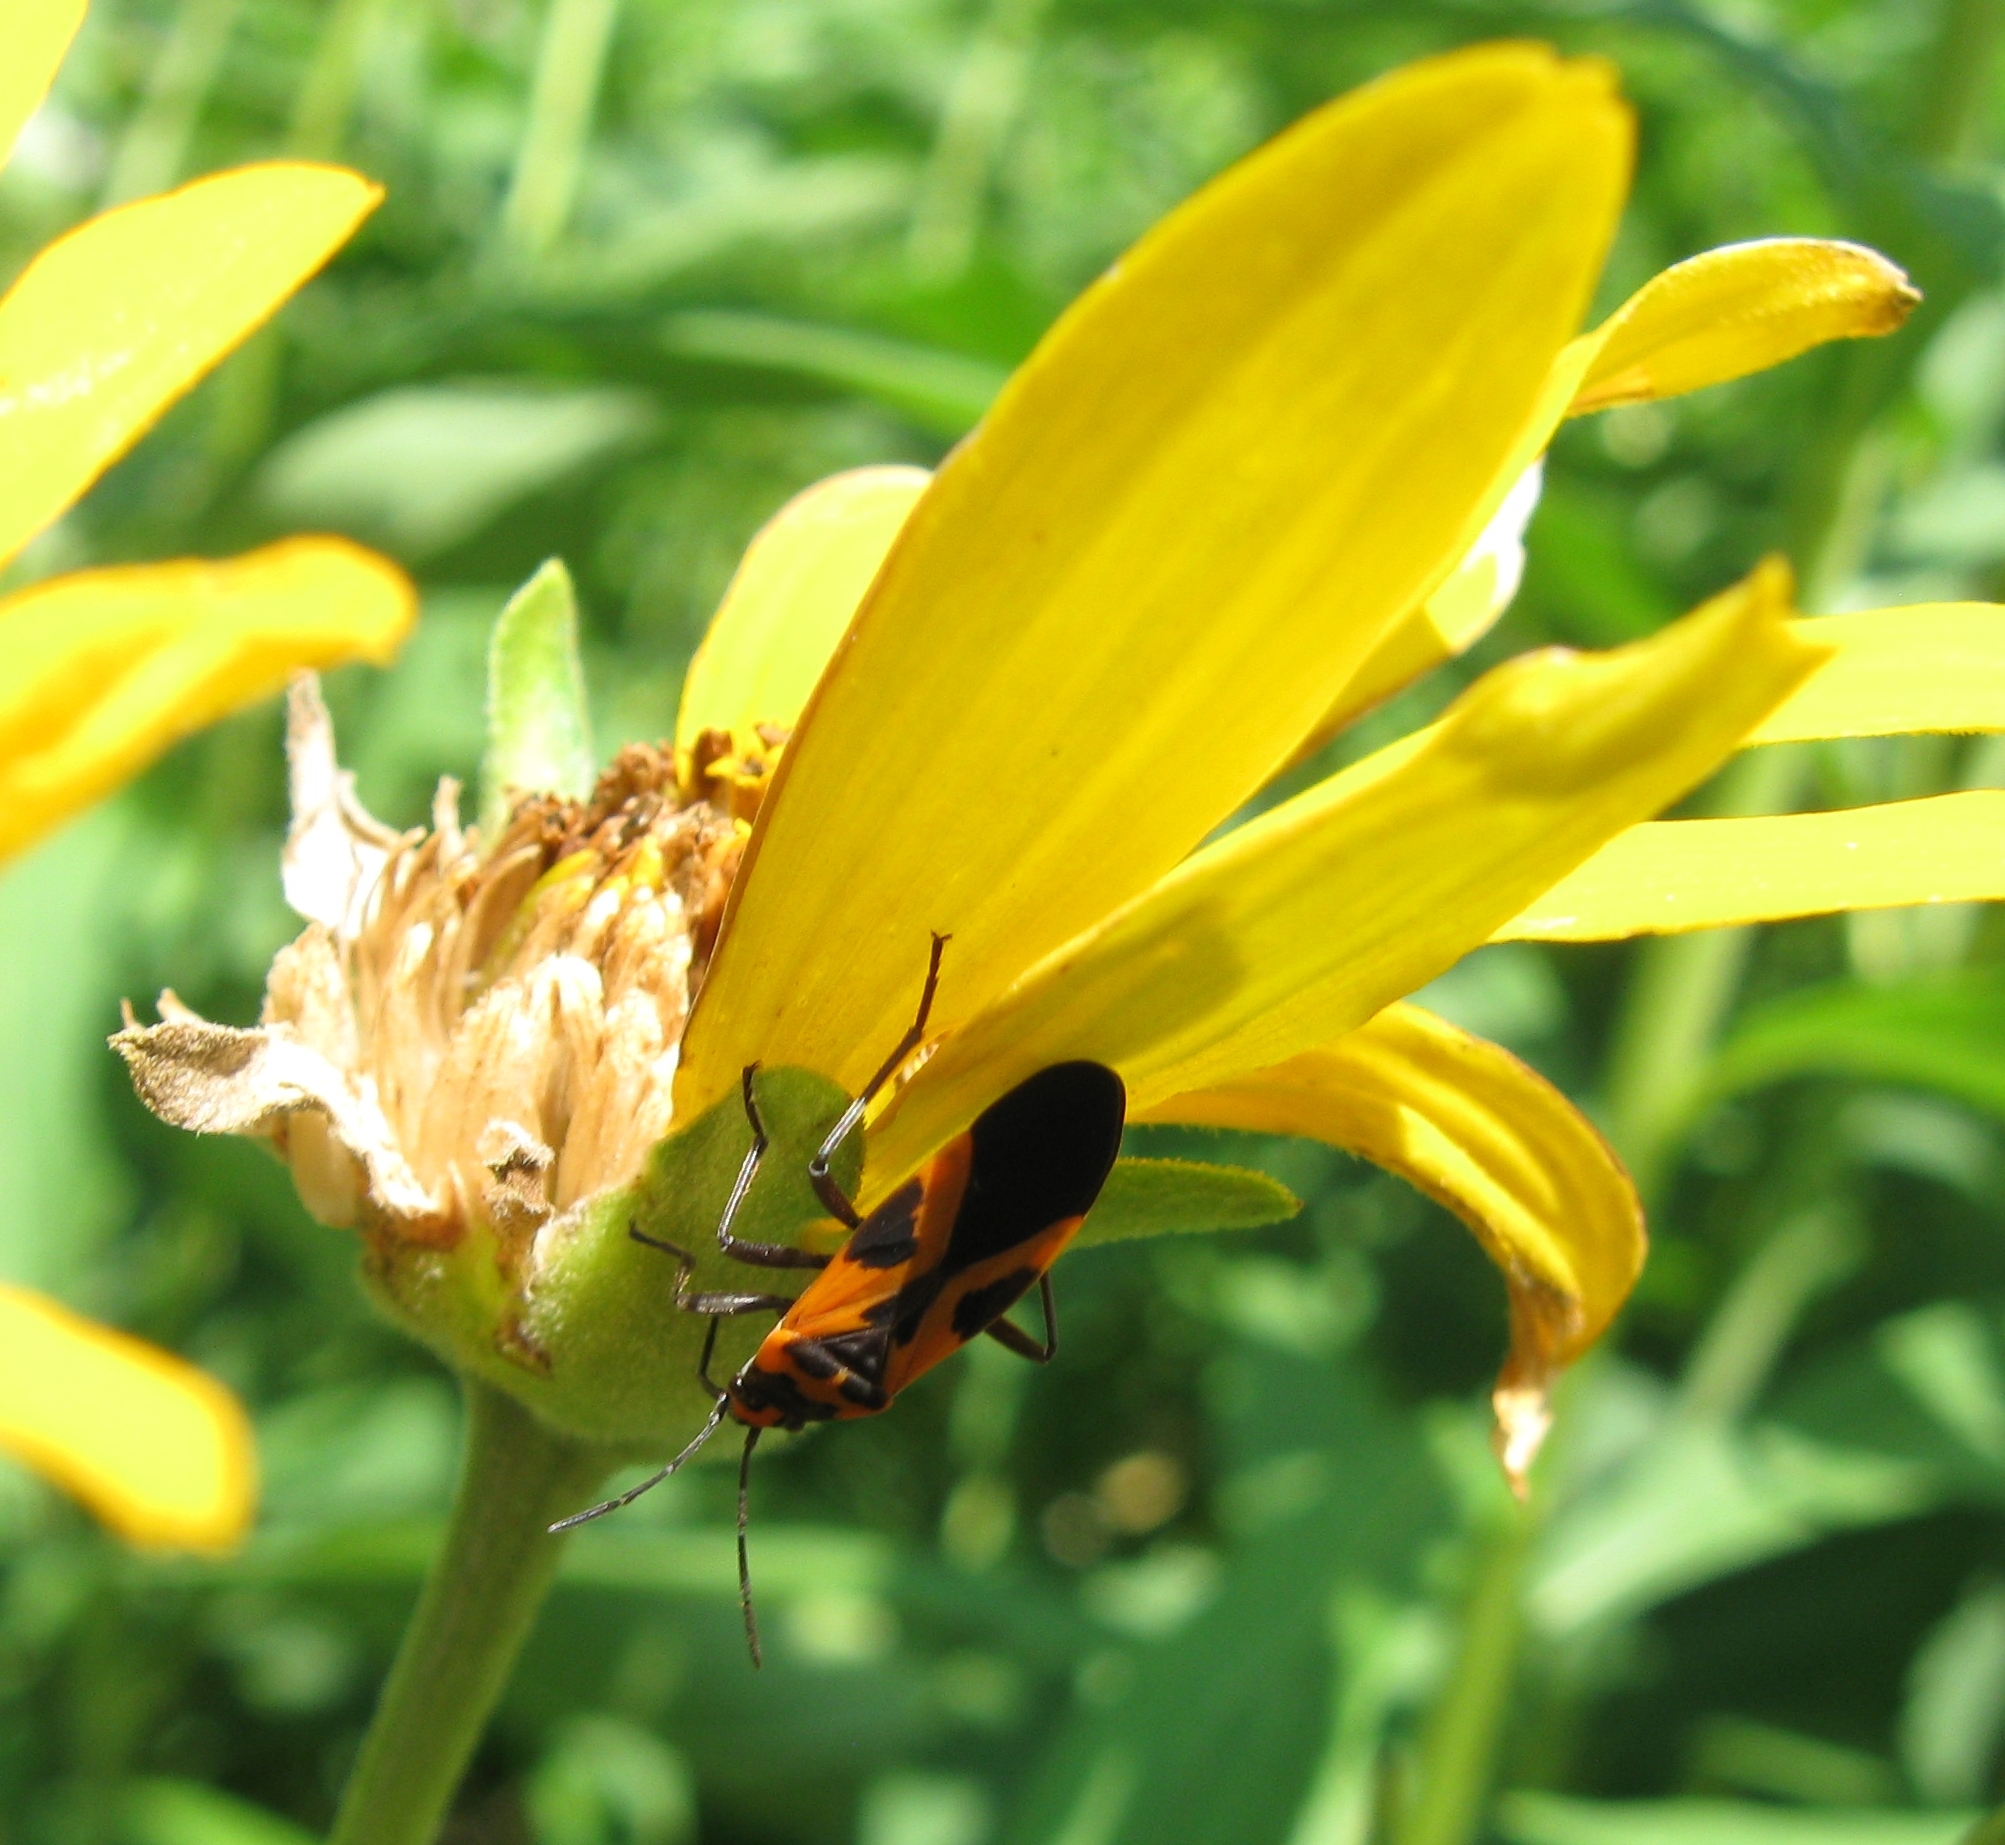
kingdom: Animalia
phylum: Arthropoda
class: Insecta
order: Hemiptera
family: Lygaeidae
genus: Lygaeus
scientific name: Lygaeus turcicus
